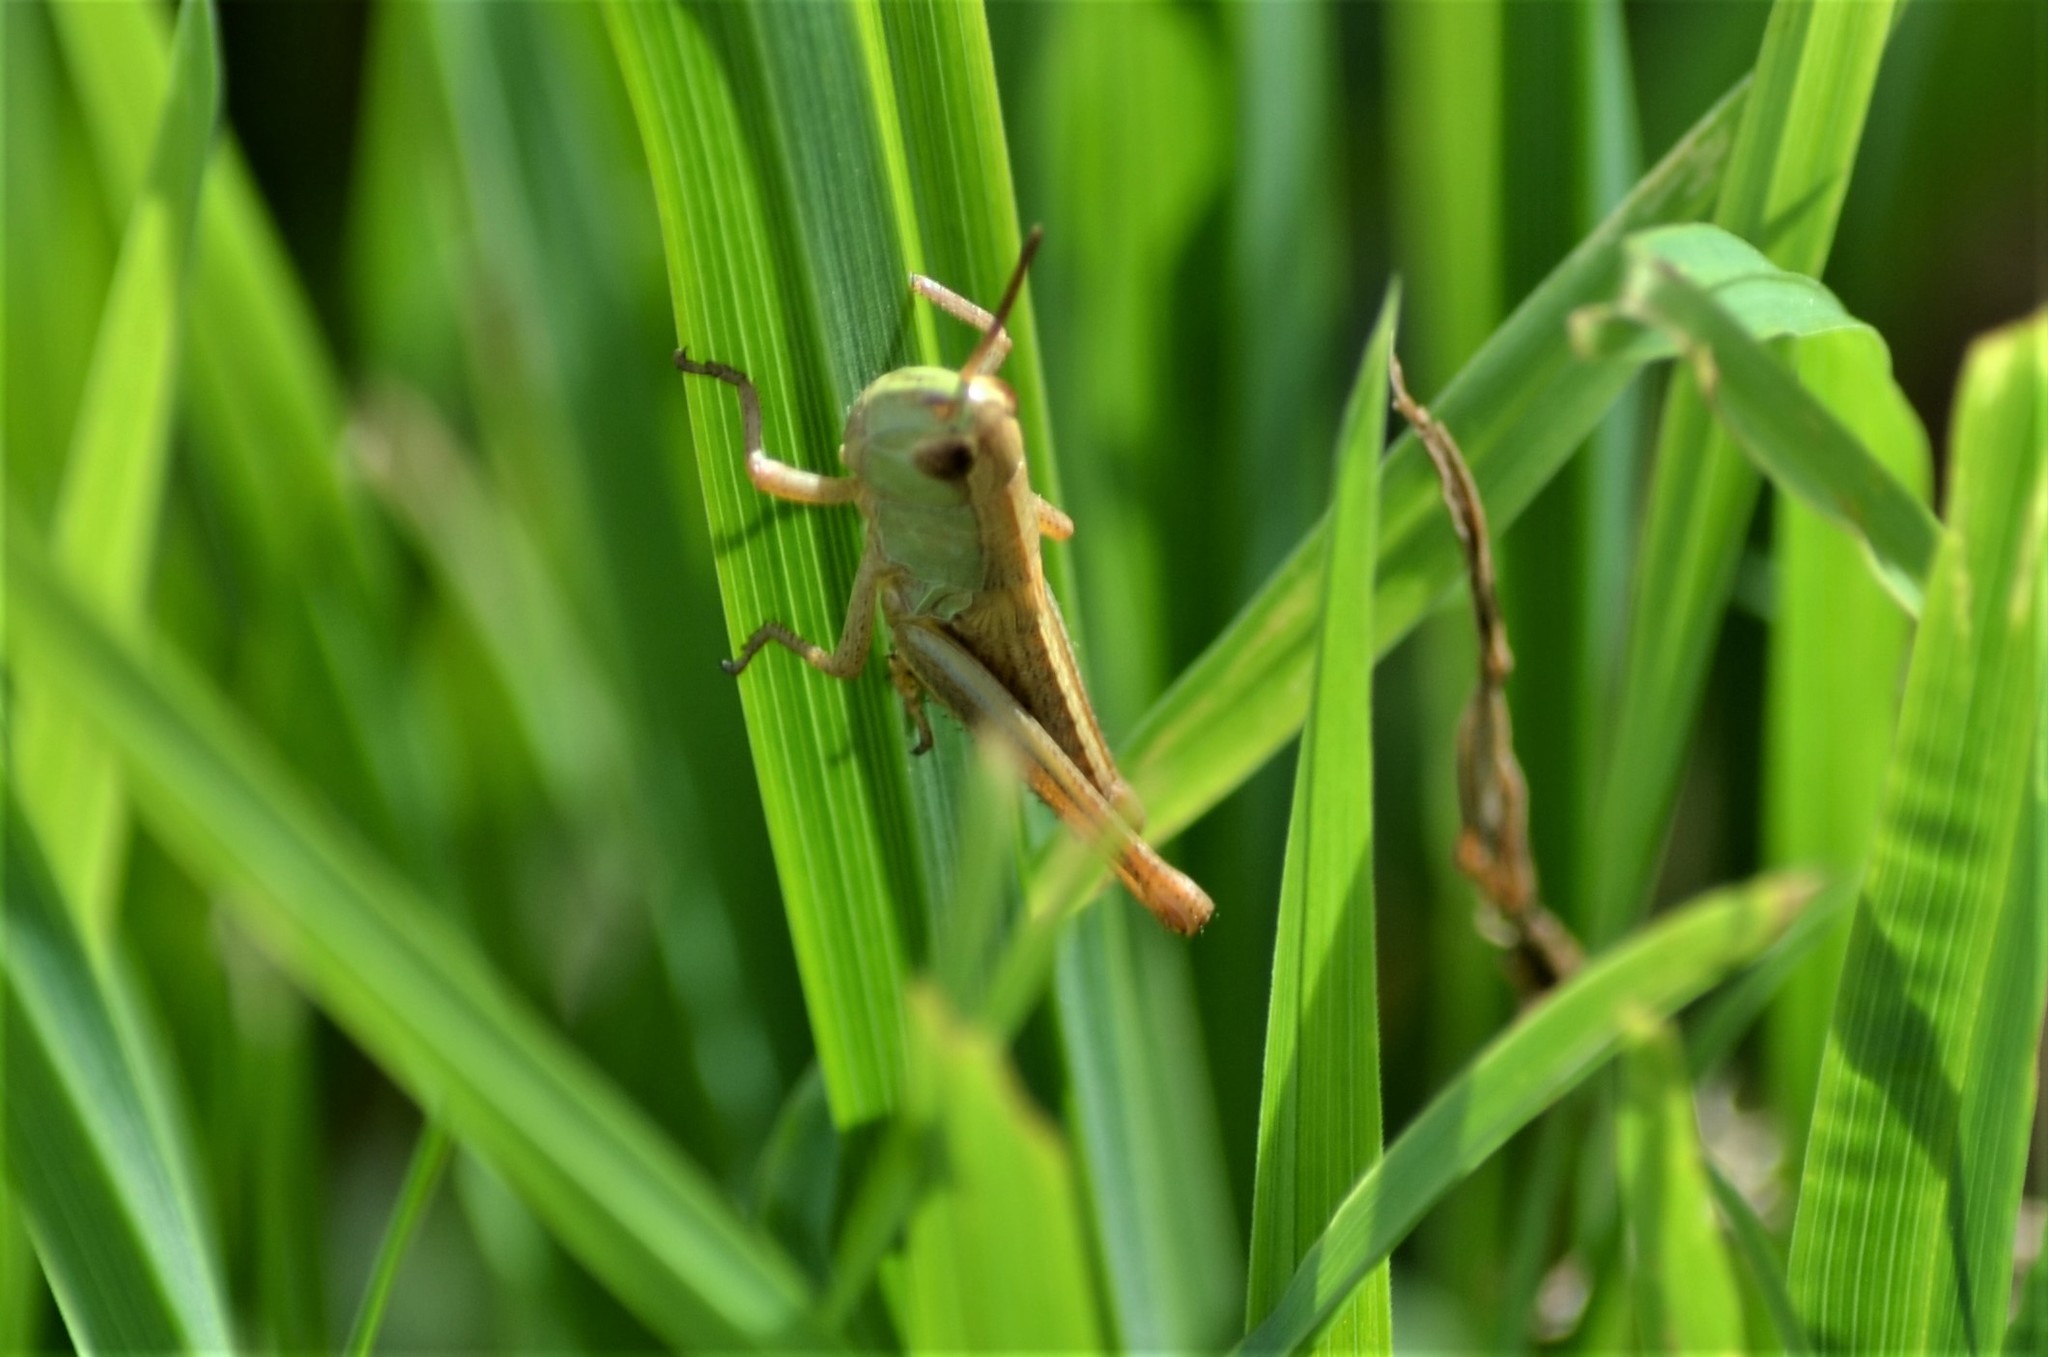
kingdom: Animalia
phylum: Arthropoda
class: Insecta
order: Orthoptera
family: Acrididae
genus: Pseudochorthippus
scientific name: Pseudochorthippus parallelus
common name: Meadow grasshopper
